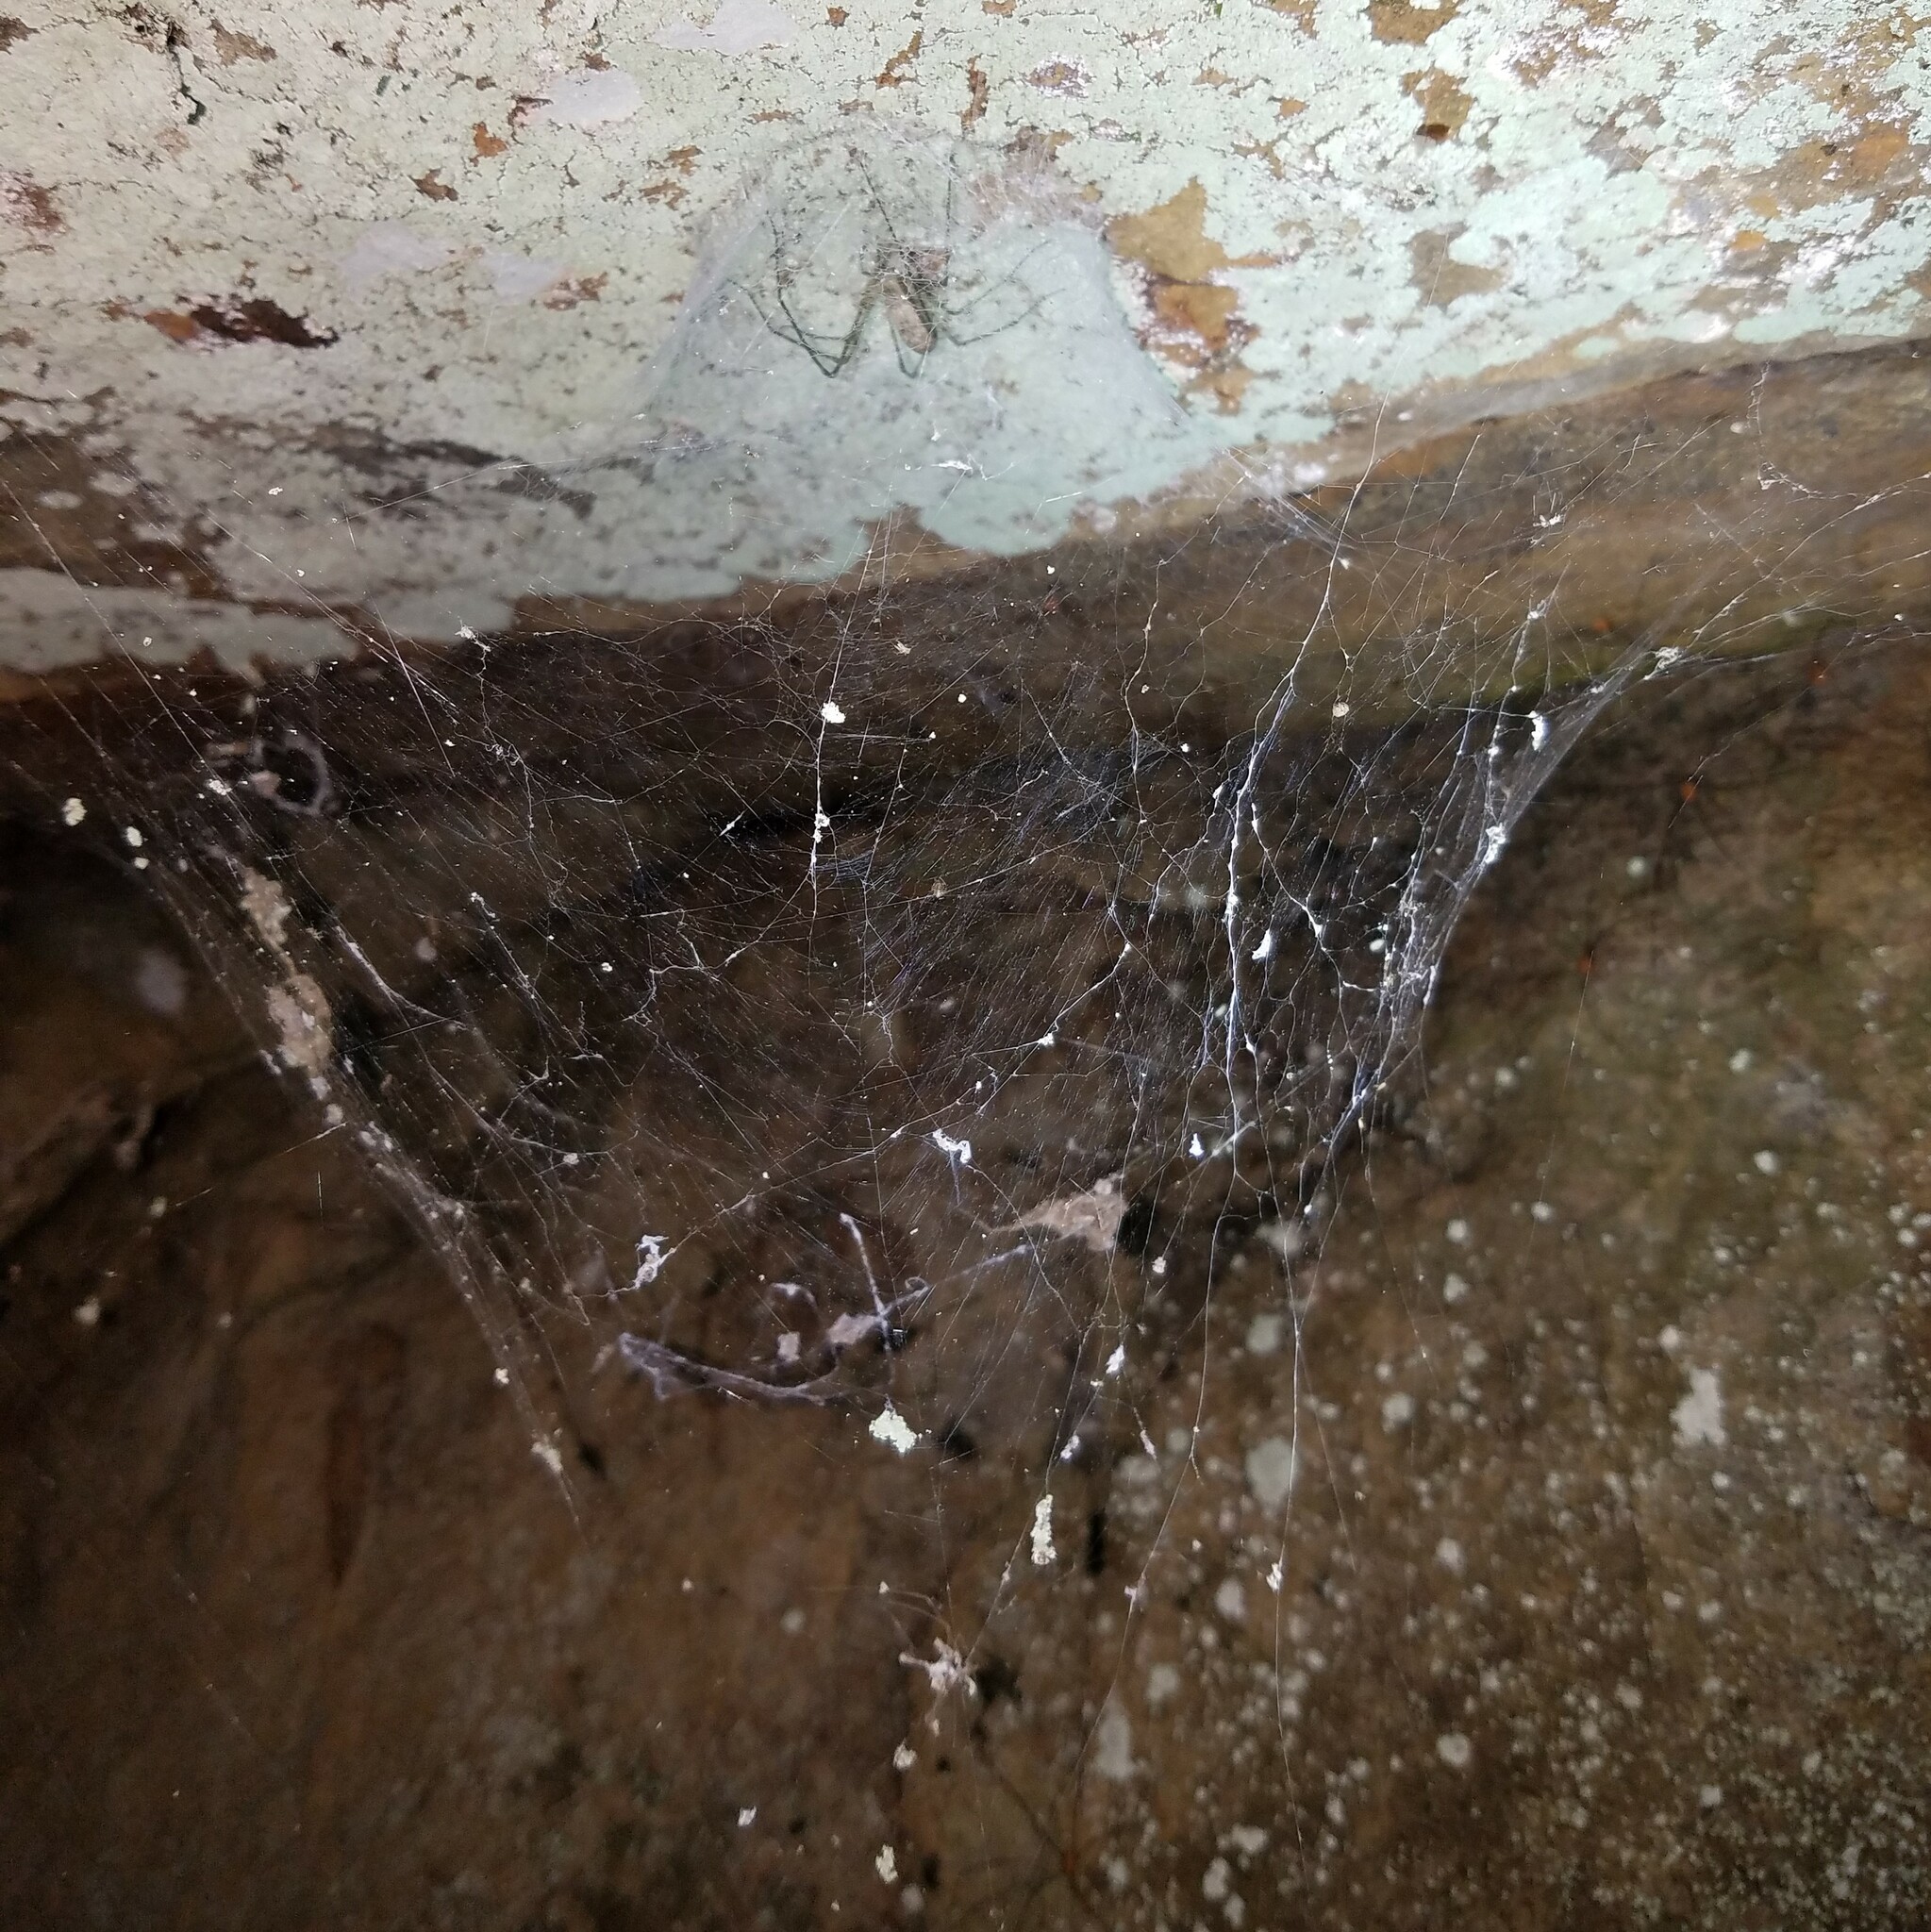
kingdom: Animalia
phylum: Arthropoda
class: Arachnida
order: Araneae
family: Hypochilidae
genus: Hypochilus
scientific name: Hypochilus thorelli
